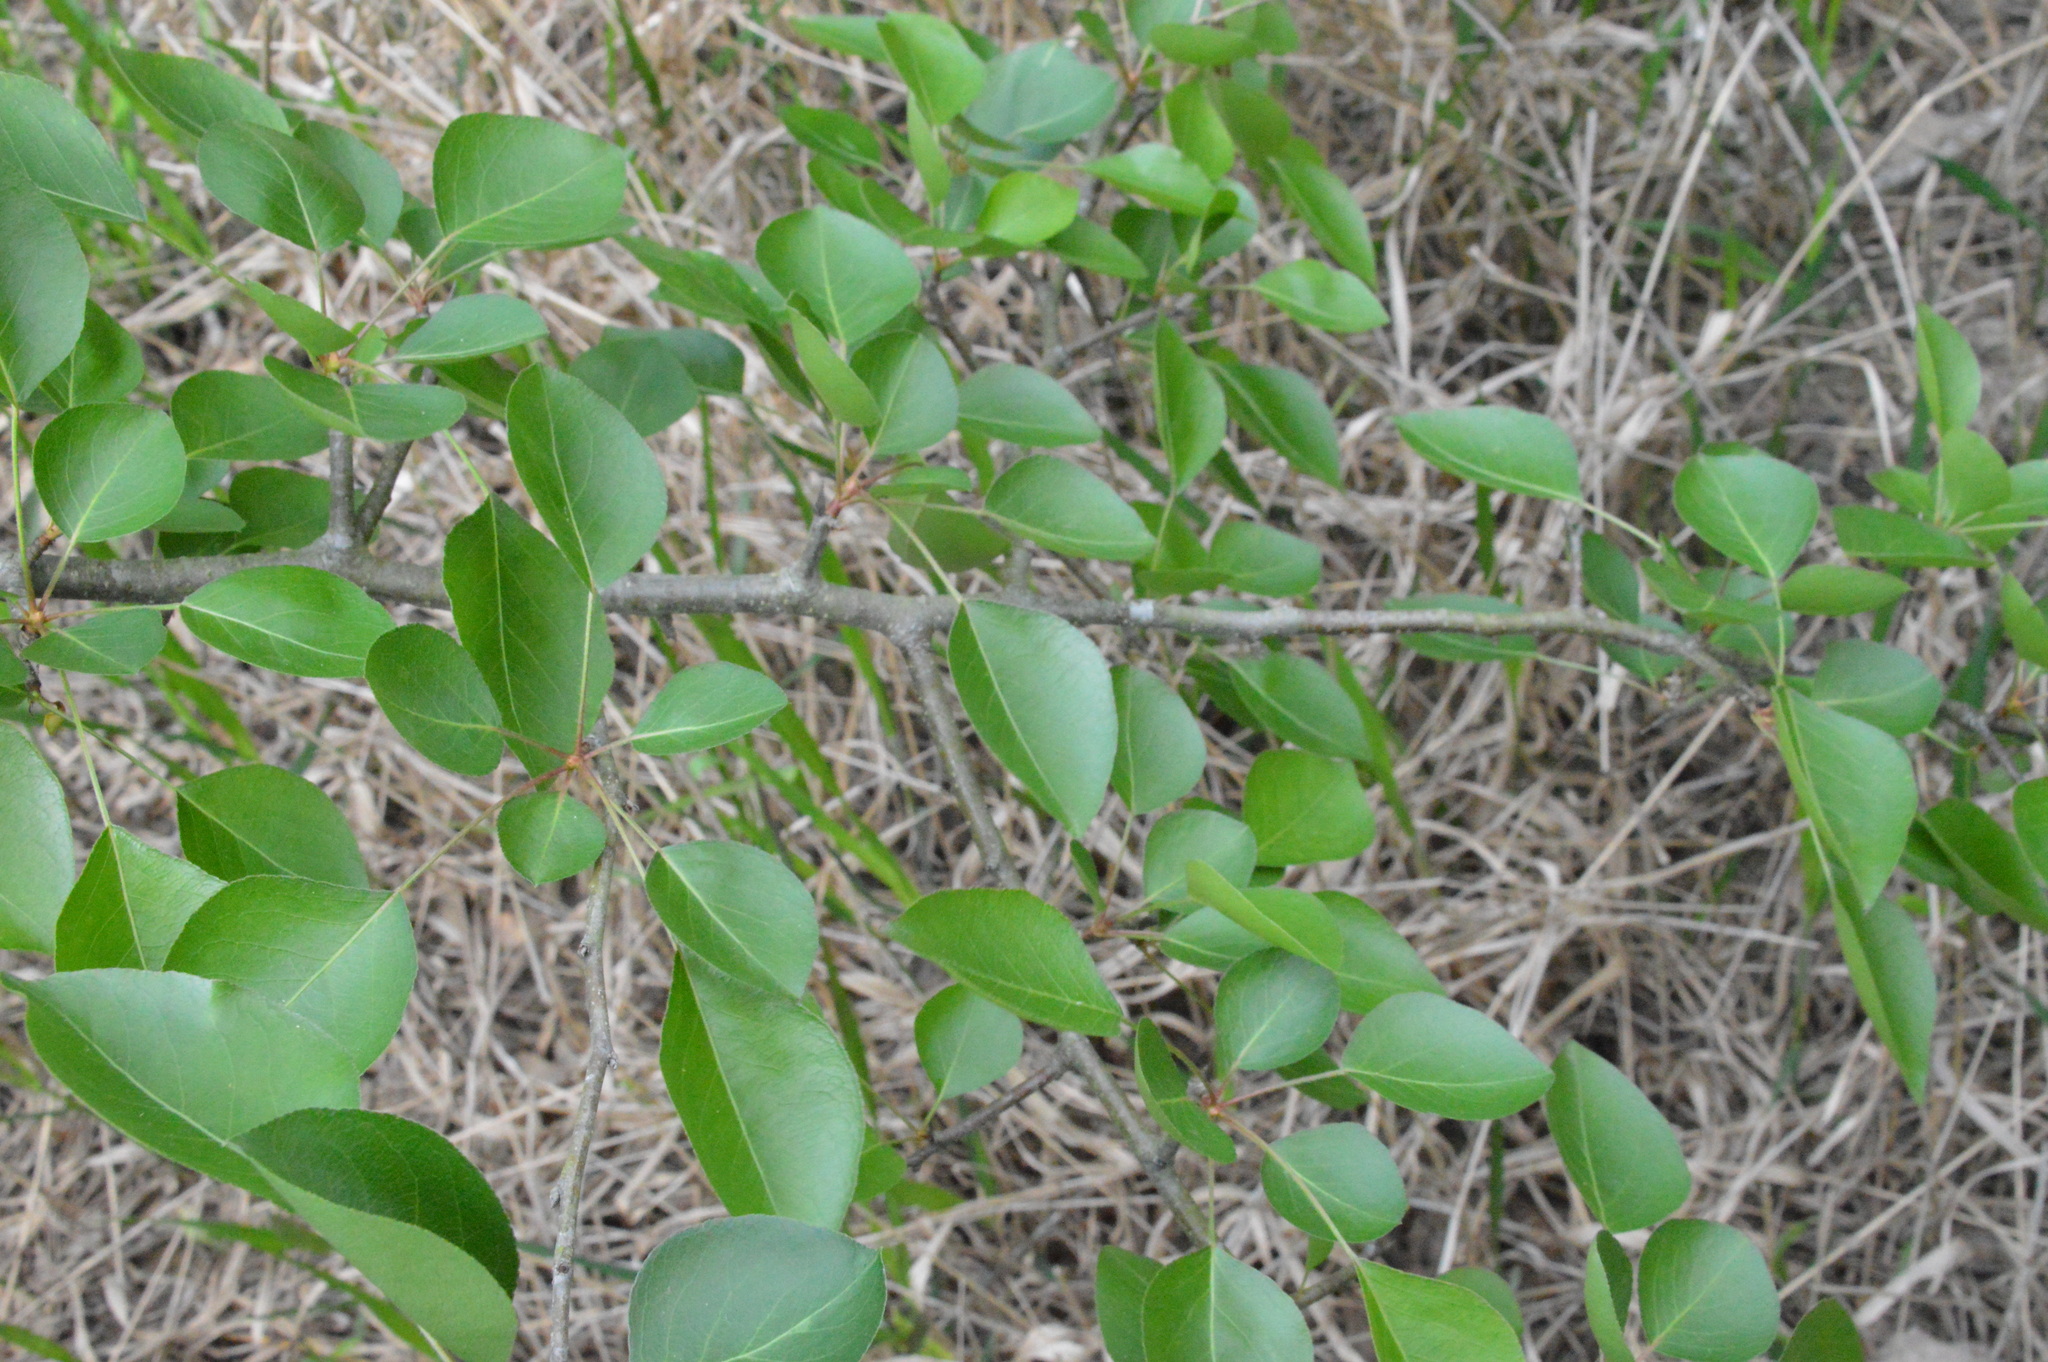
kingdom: Plantae
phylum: Tracheophyta
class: Magnoliopsida
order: Rosales
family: Rosaceae
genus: Pyrus
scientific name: Pyrus calleryana
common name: Callery pear
